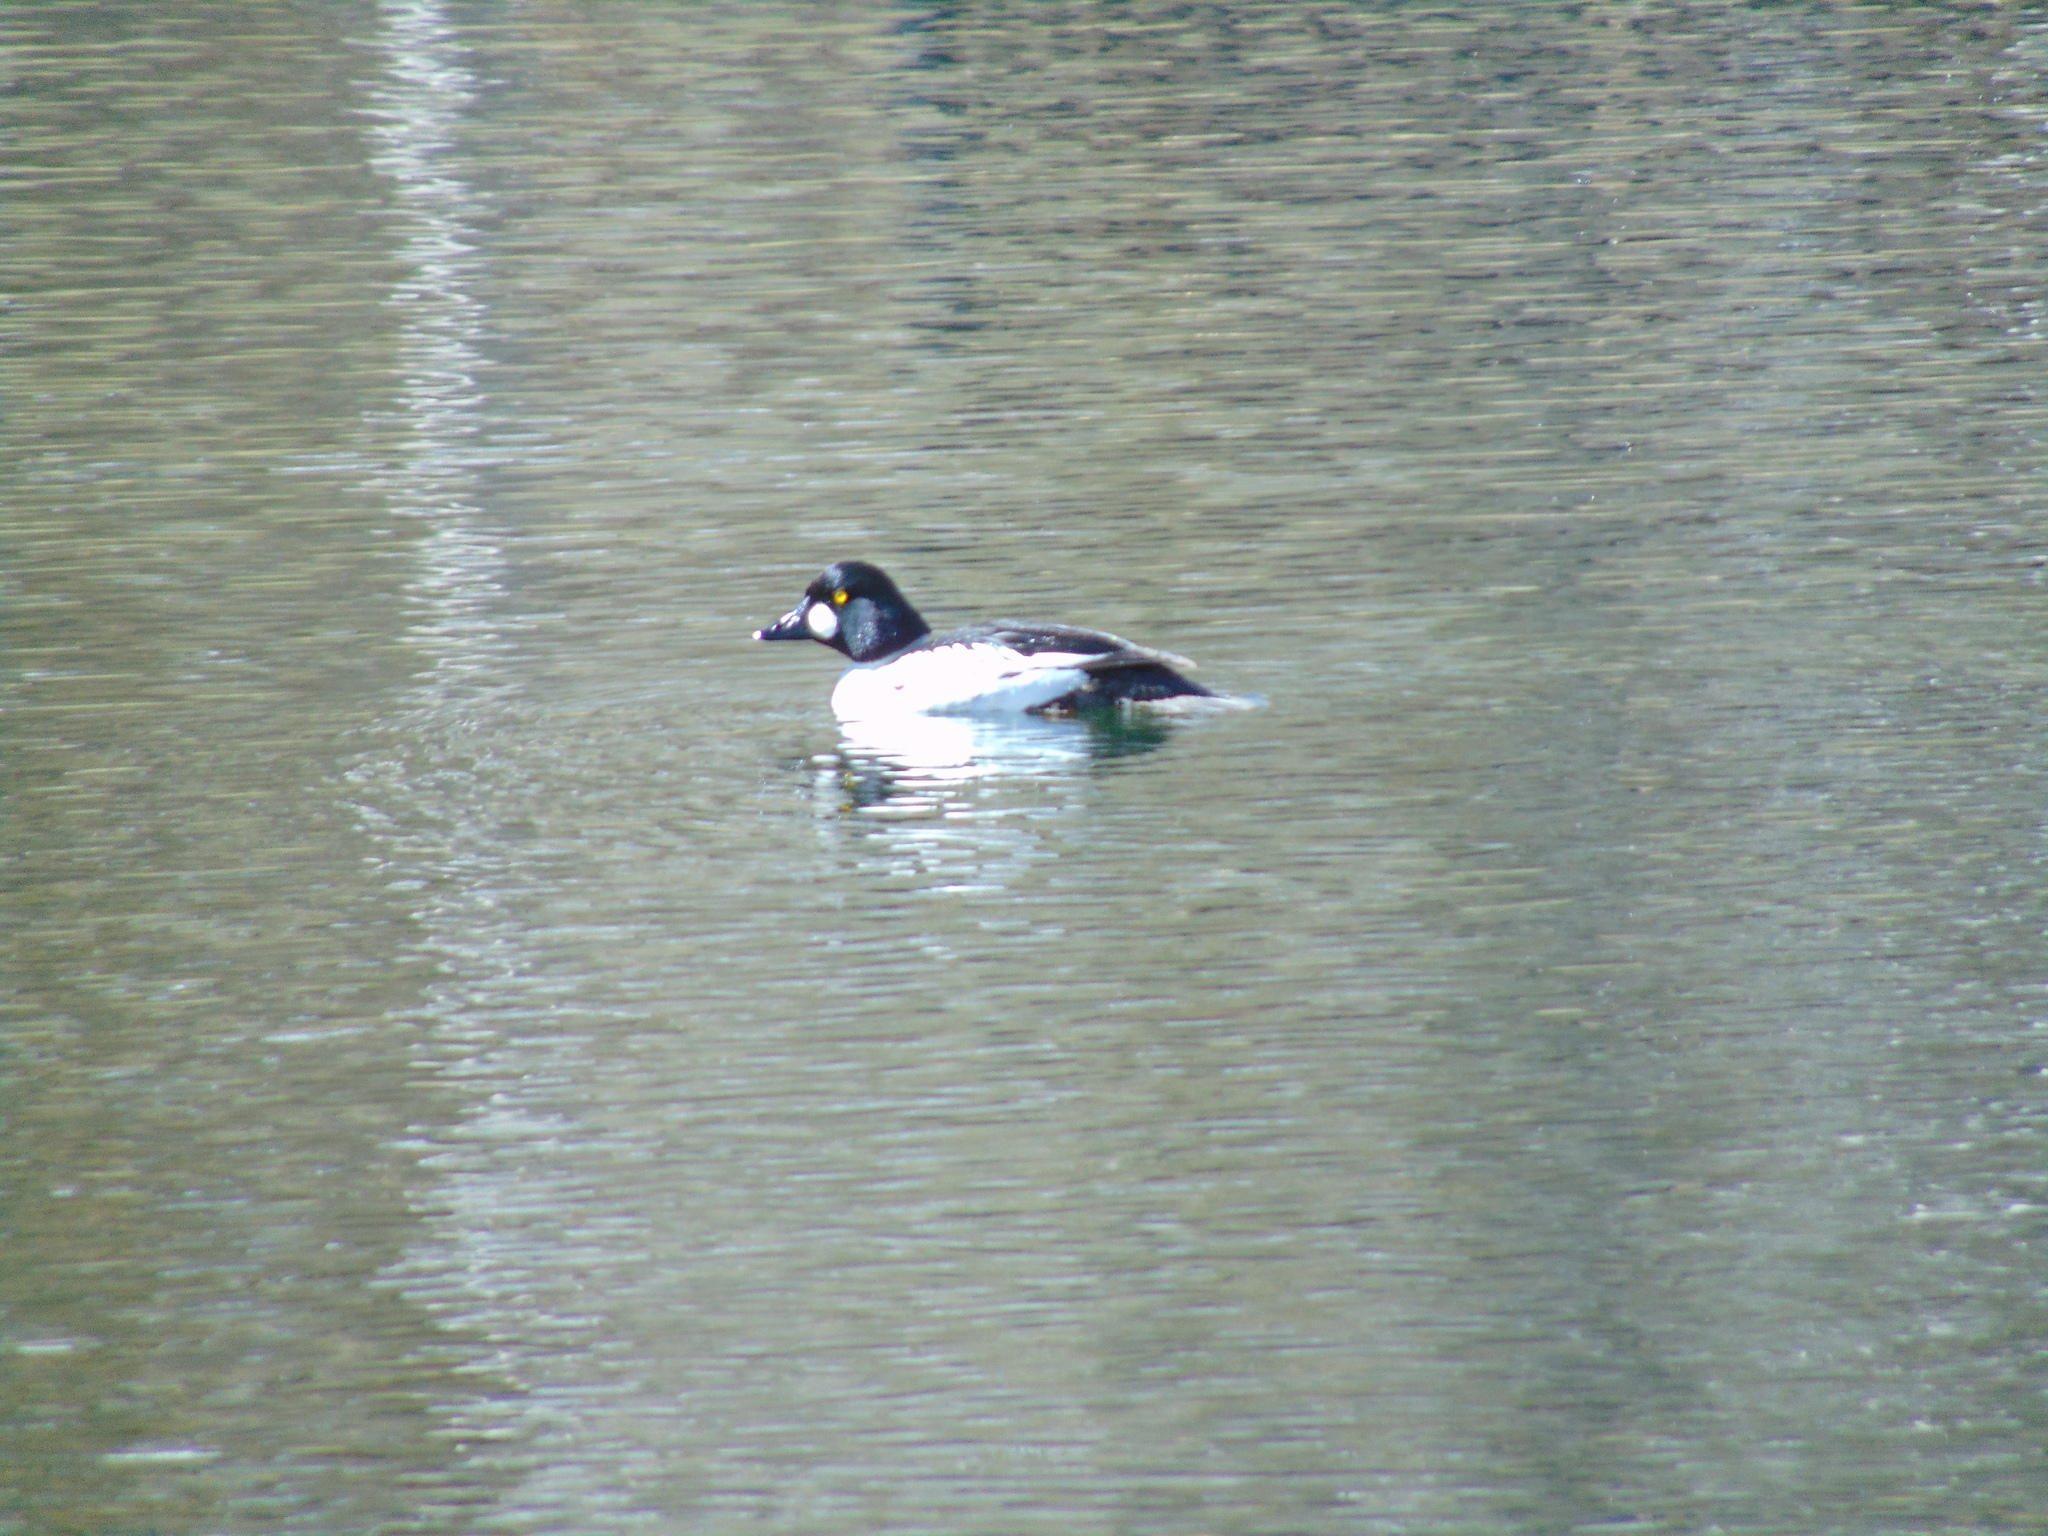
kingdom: Animalia
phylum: Chordata
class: Aves
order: Anseriformes
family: Anatidae
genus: Bucephala
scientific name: Bucephala clangula
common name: Common goldeneye
